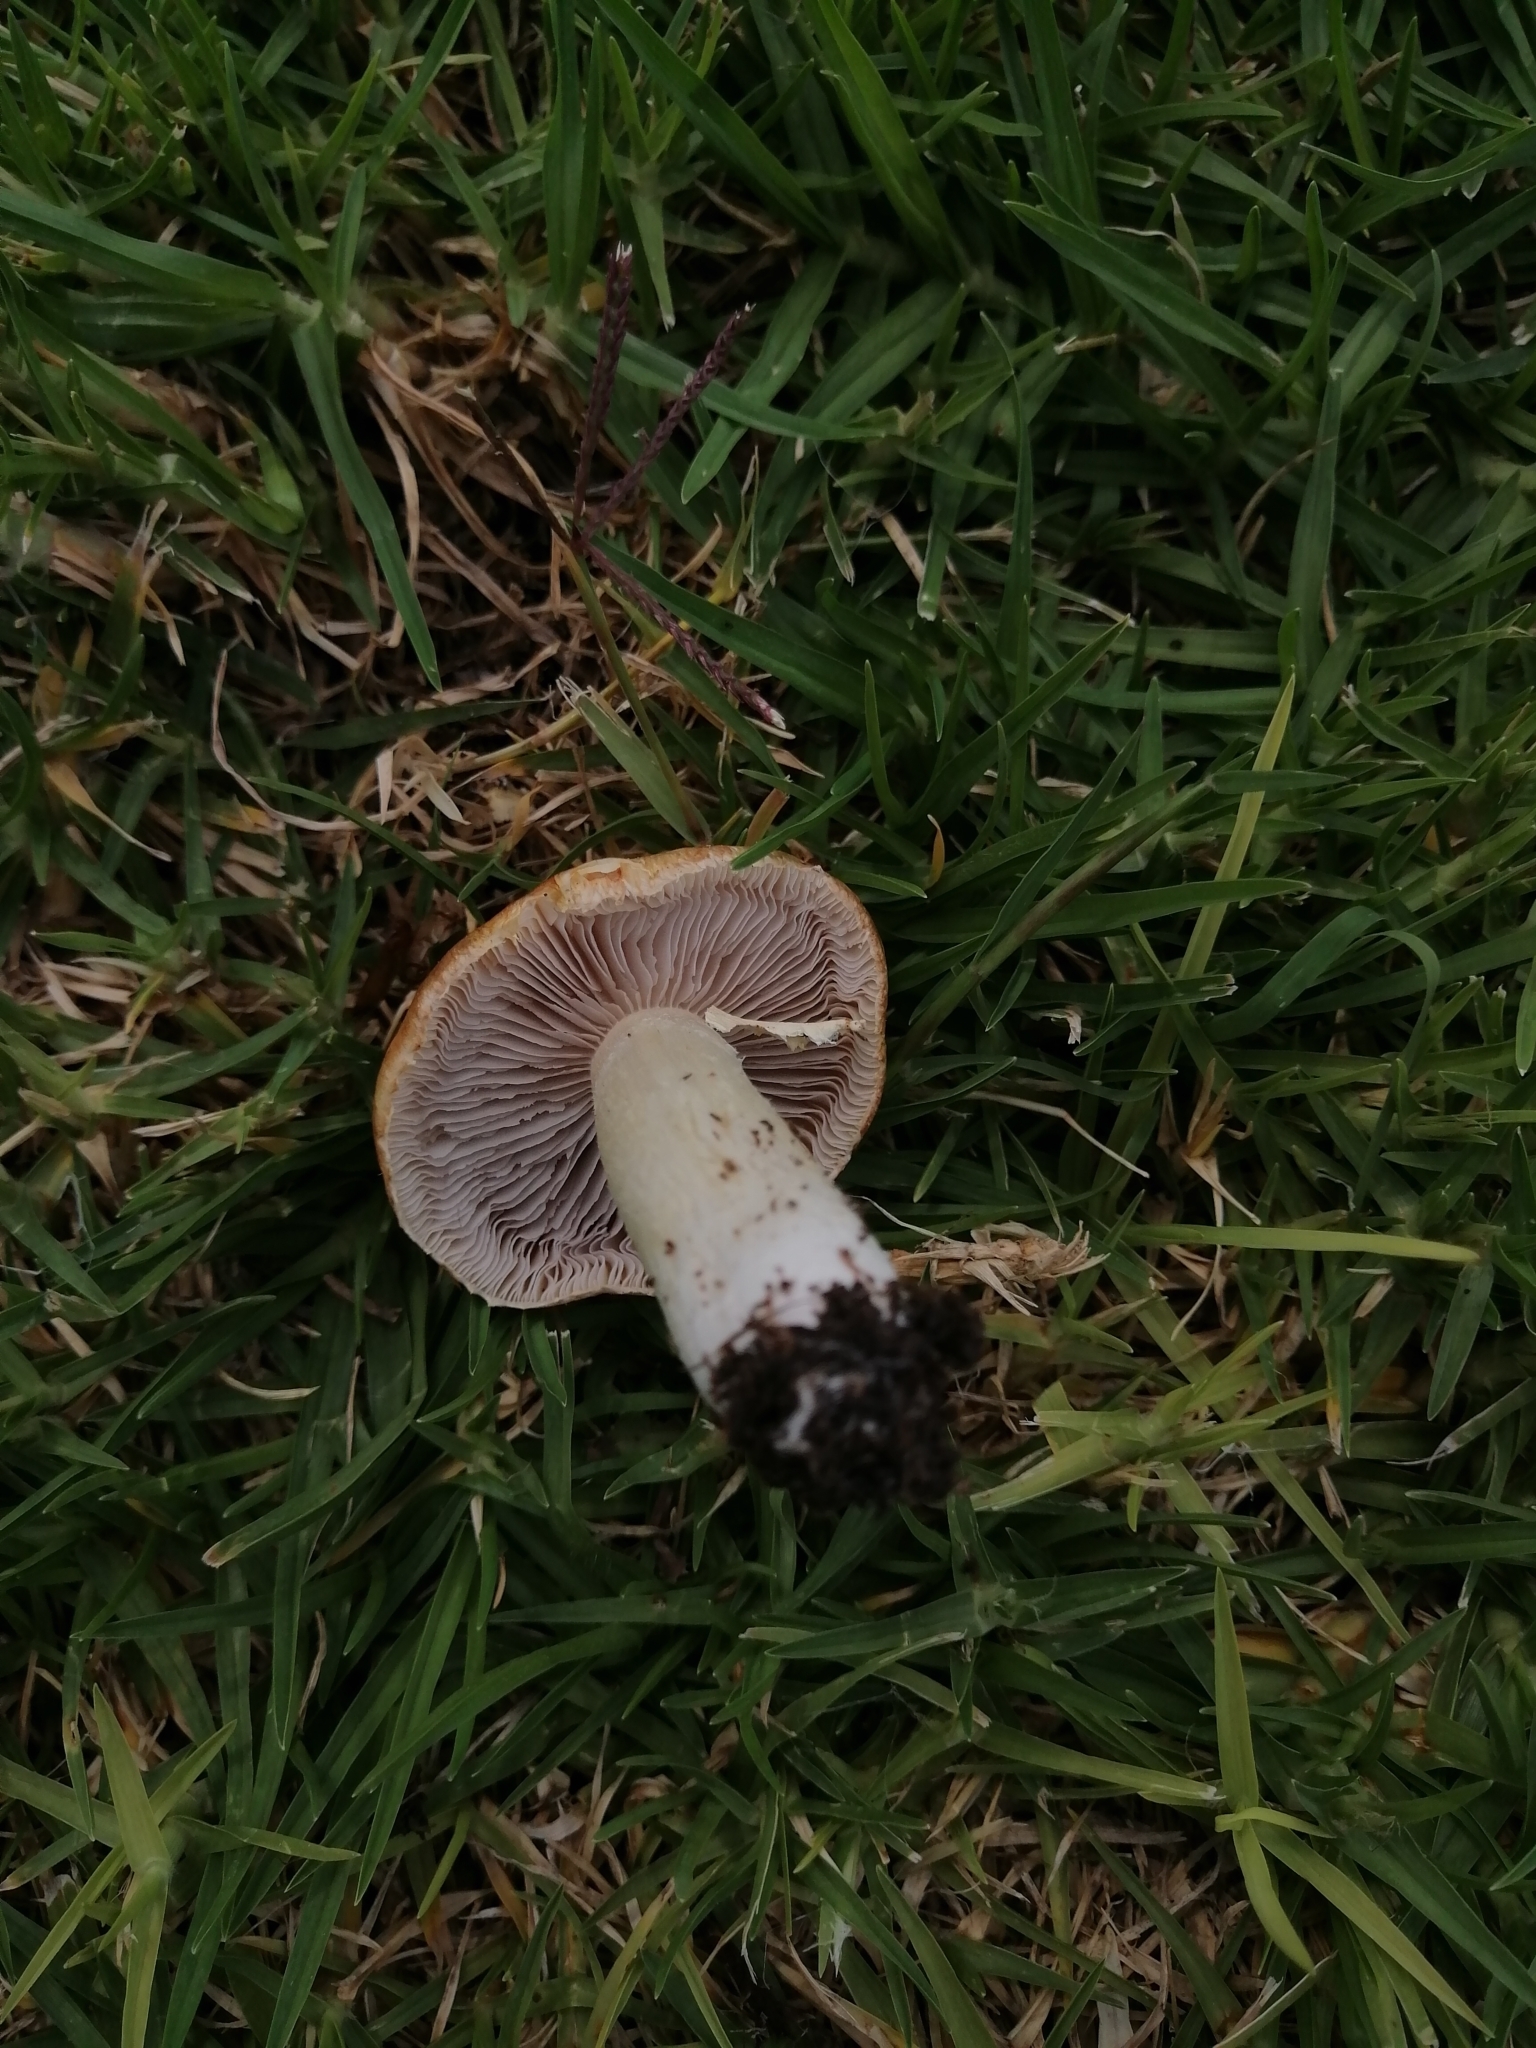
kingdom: Fungi
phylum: Basidiomycota
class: Agaricomycetes
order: Agaricales
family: Hymenogastraceae
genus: Psilocybe
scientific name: Psilocybe coronilla
